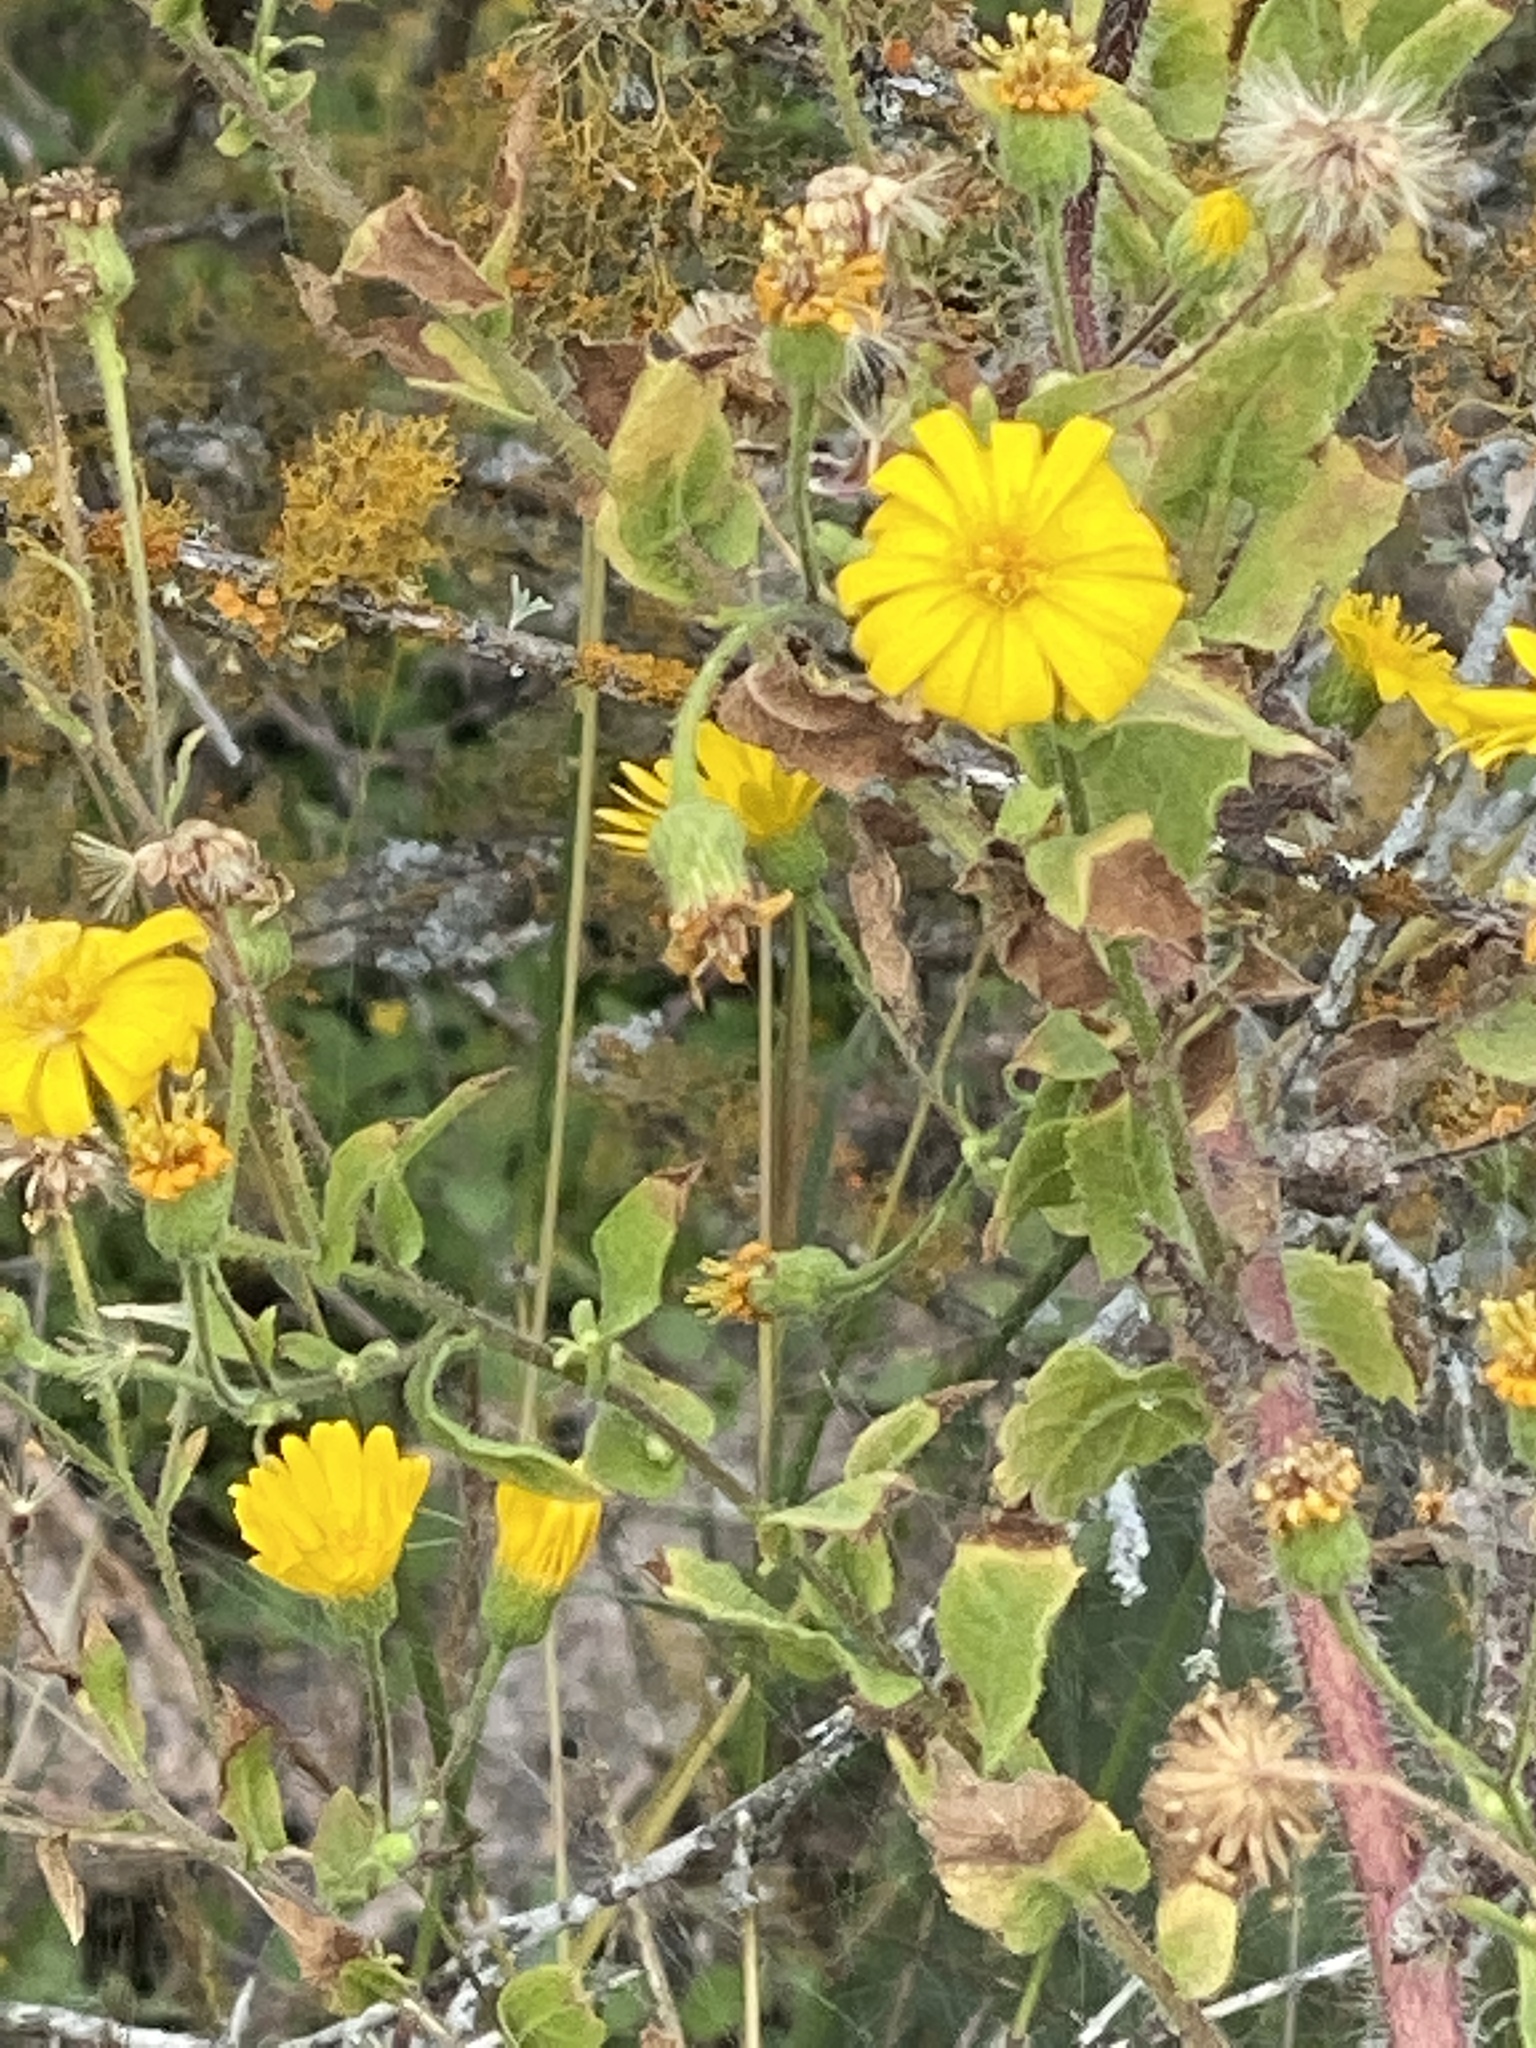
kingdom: Plantae
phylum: Tracheophyta
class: Magnoliopsida
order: Asterales
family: Asteraceae
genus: Heterotheca
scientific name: Heterotheca subaxillaris
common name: Camphorweed
